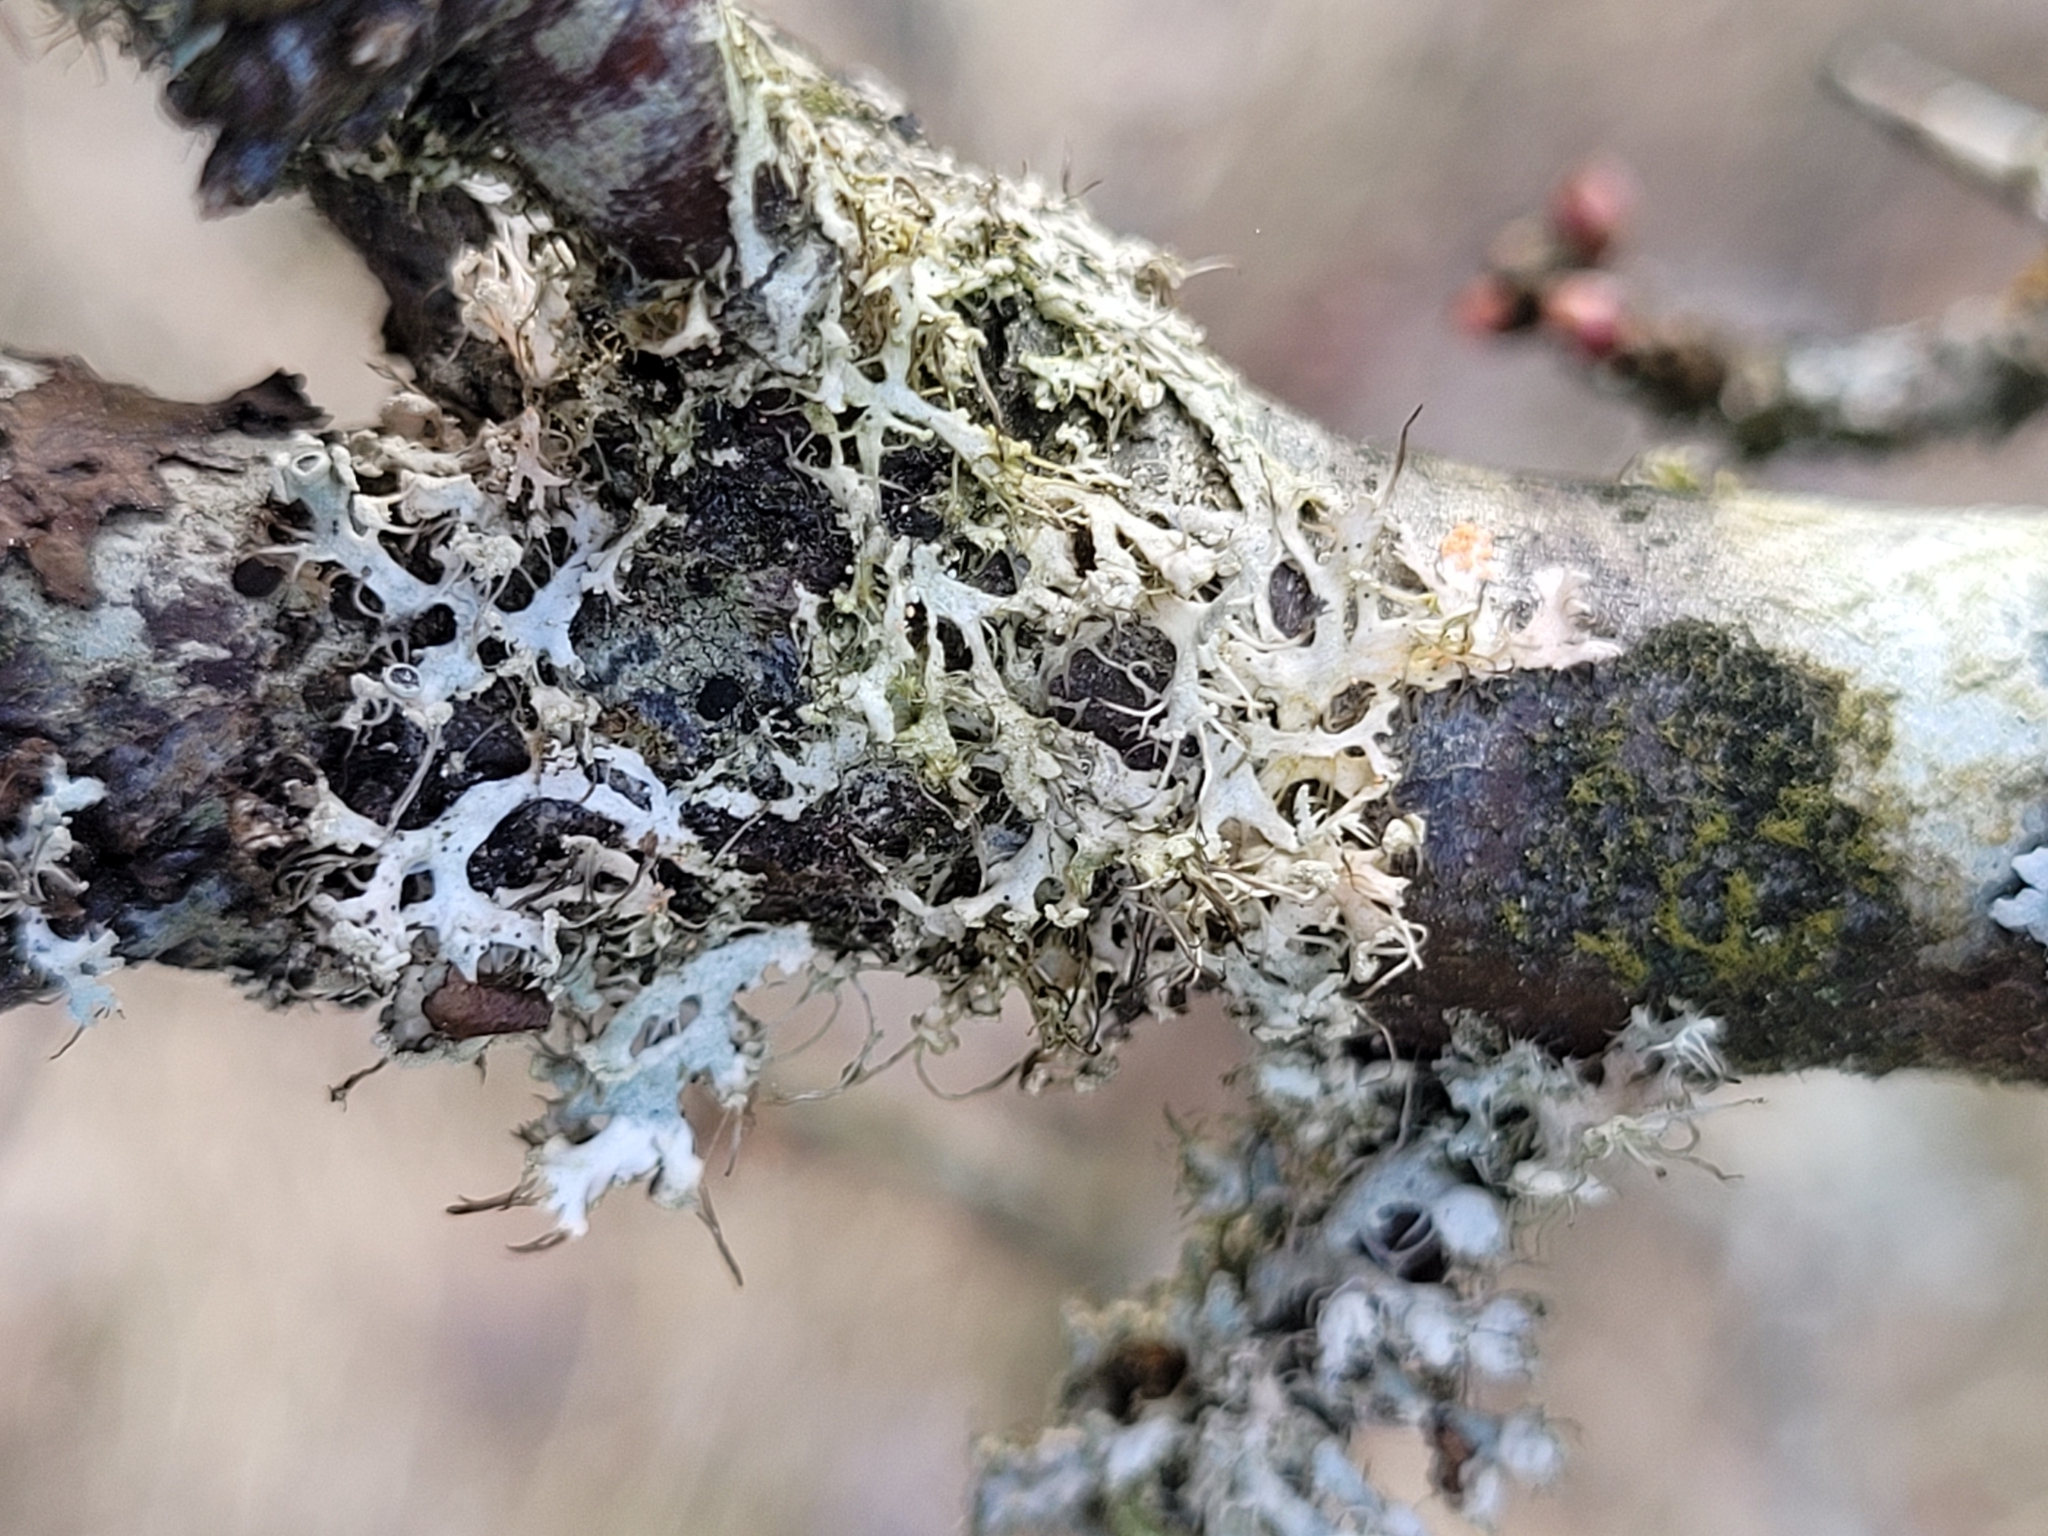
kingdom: Fungi
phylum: Ascomycota
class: Lecanoromycetes
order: Caliciales
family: Physciaceae
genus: Physcia
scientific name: Physcia tenella
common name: Fringed rosette lichen
